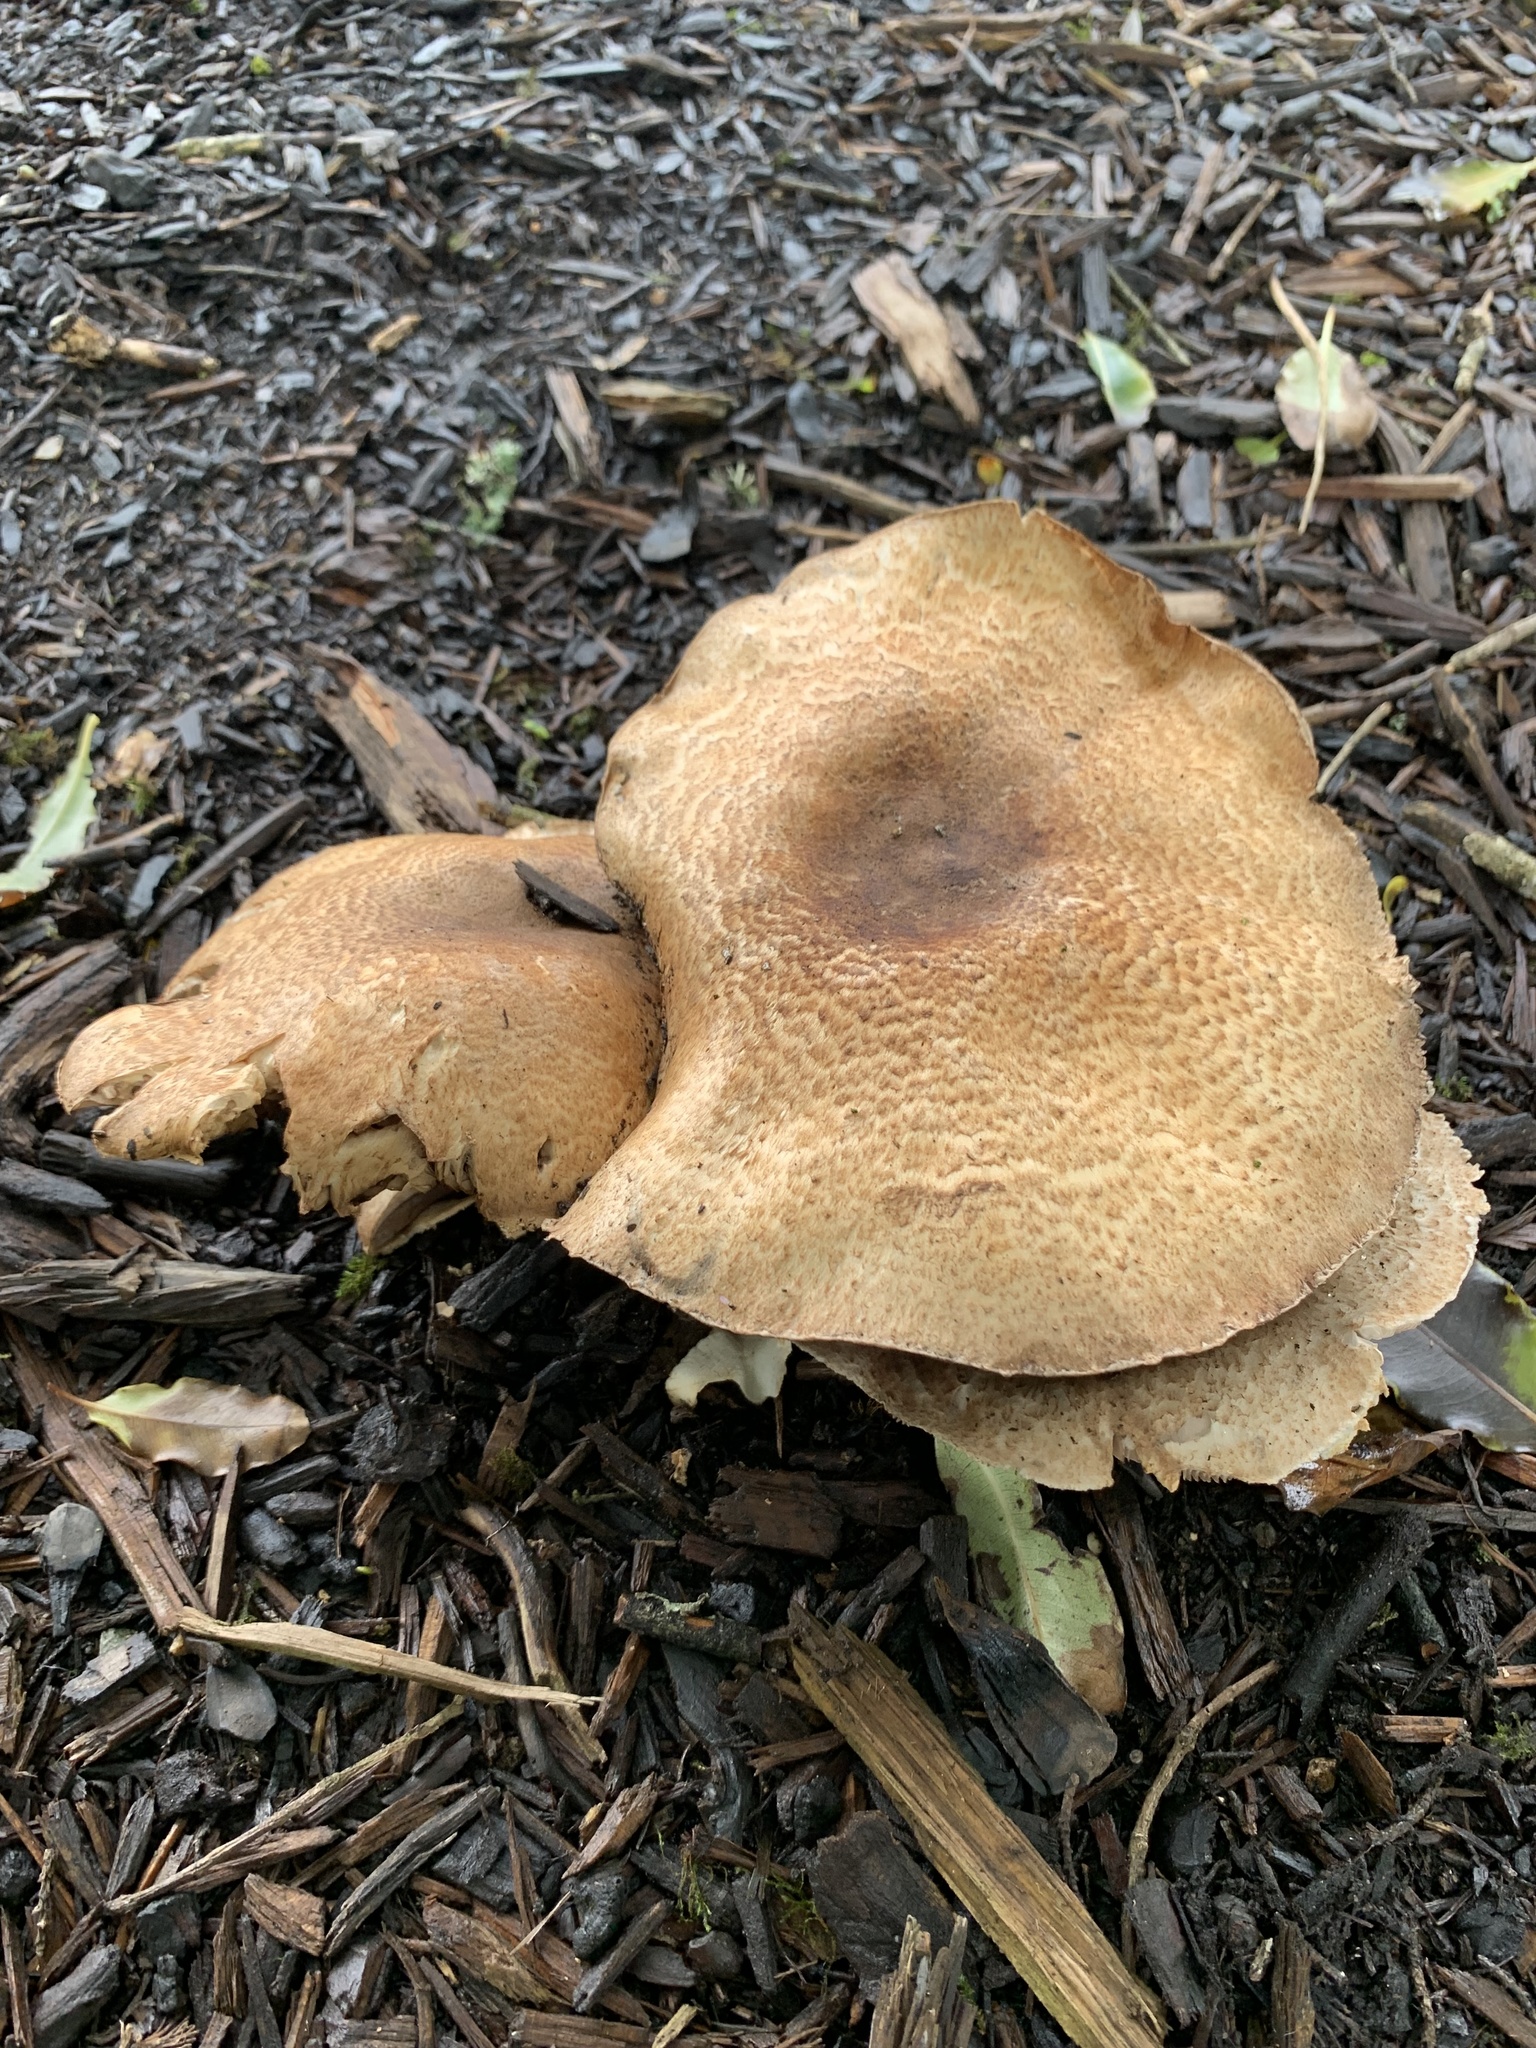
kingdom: Fungi
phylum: Basidiomycota
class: Agaricomycetes
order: Agaricales
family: Agaricaceae
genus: Agaricus
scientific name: Agaricus augustus
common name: Prince
